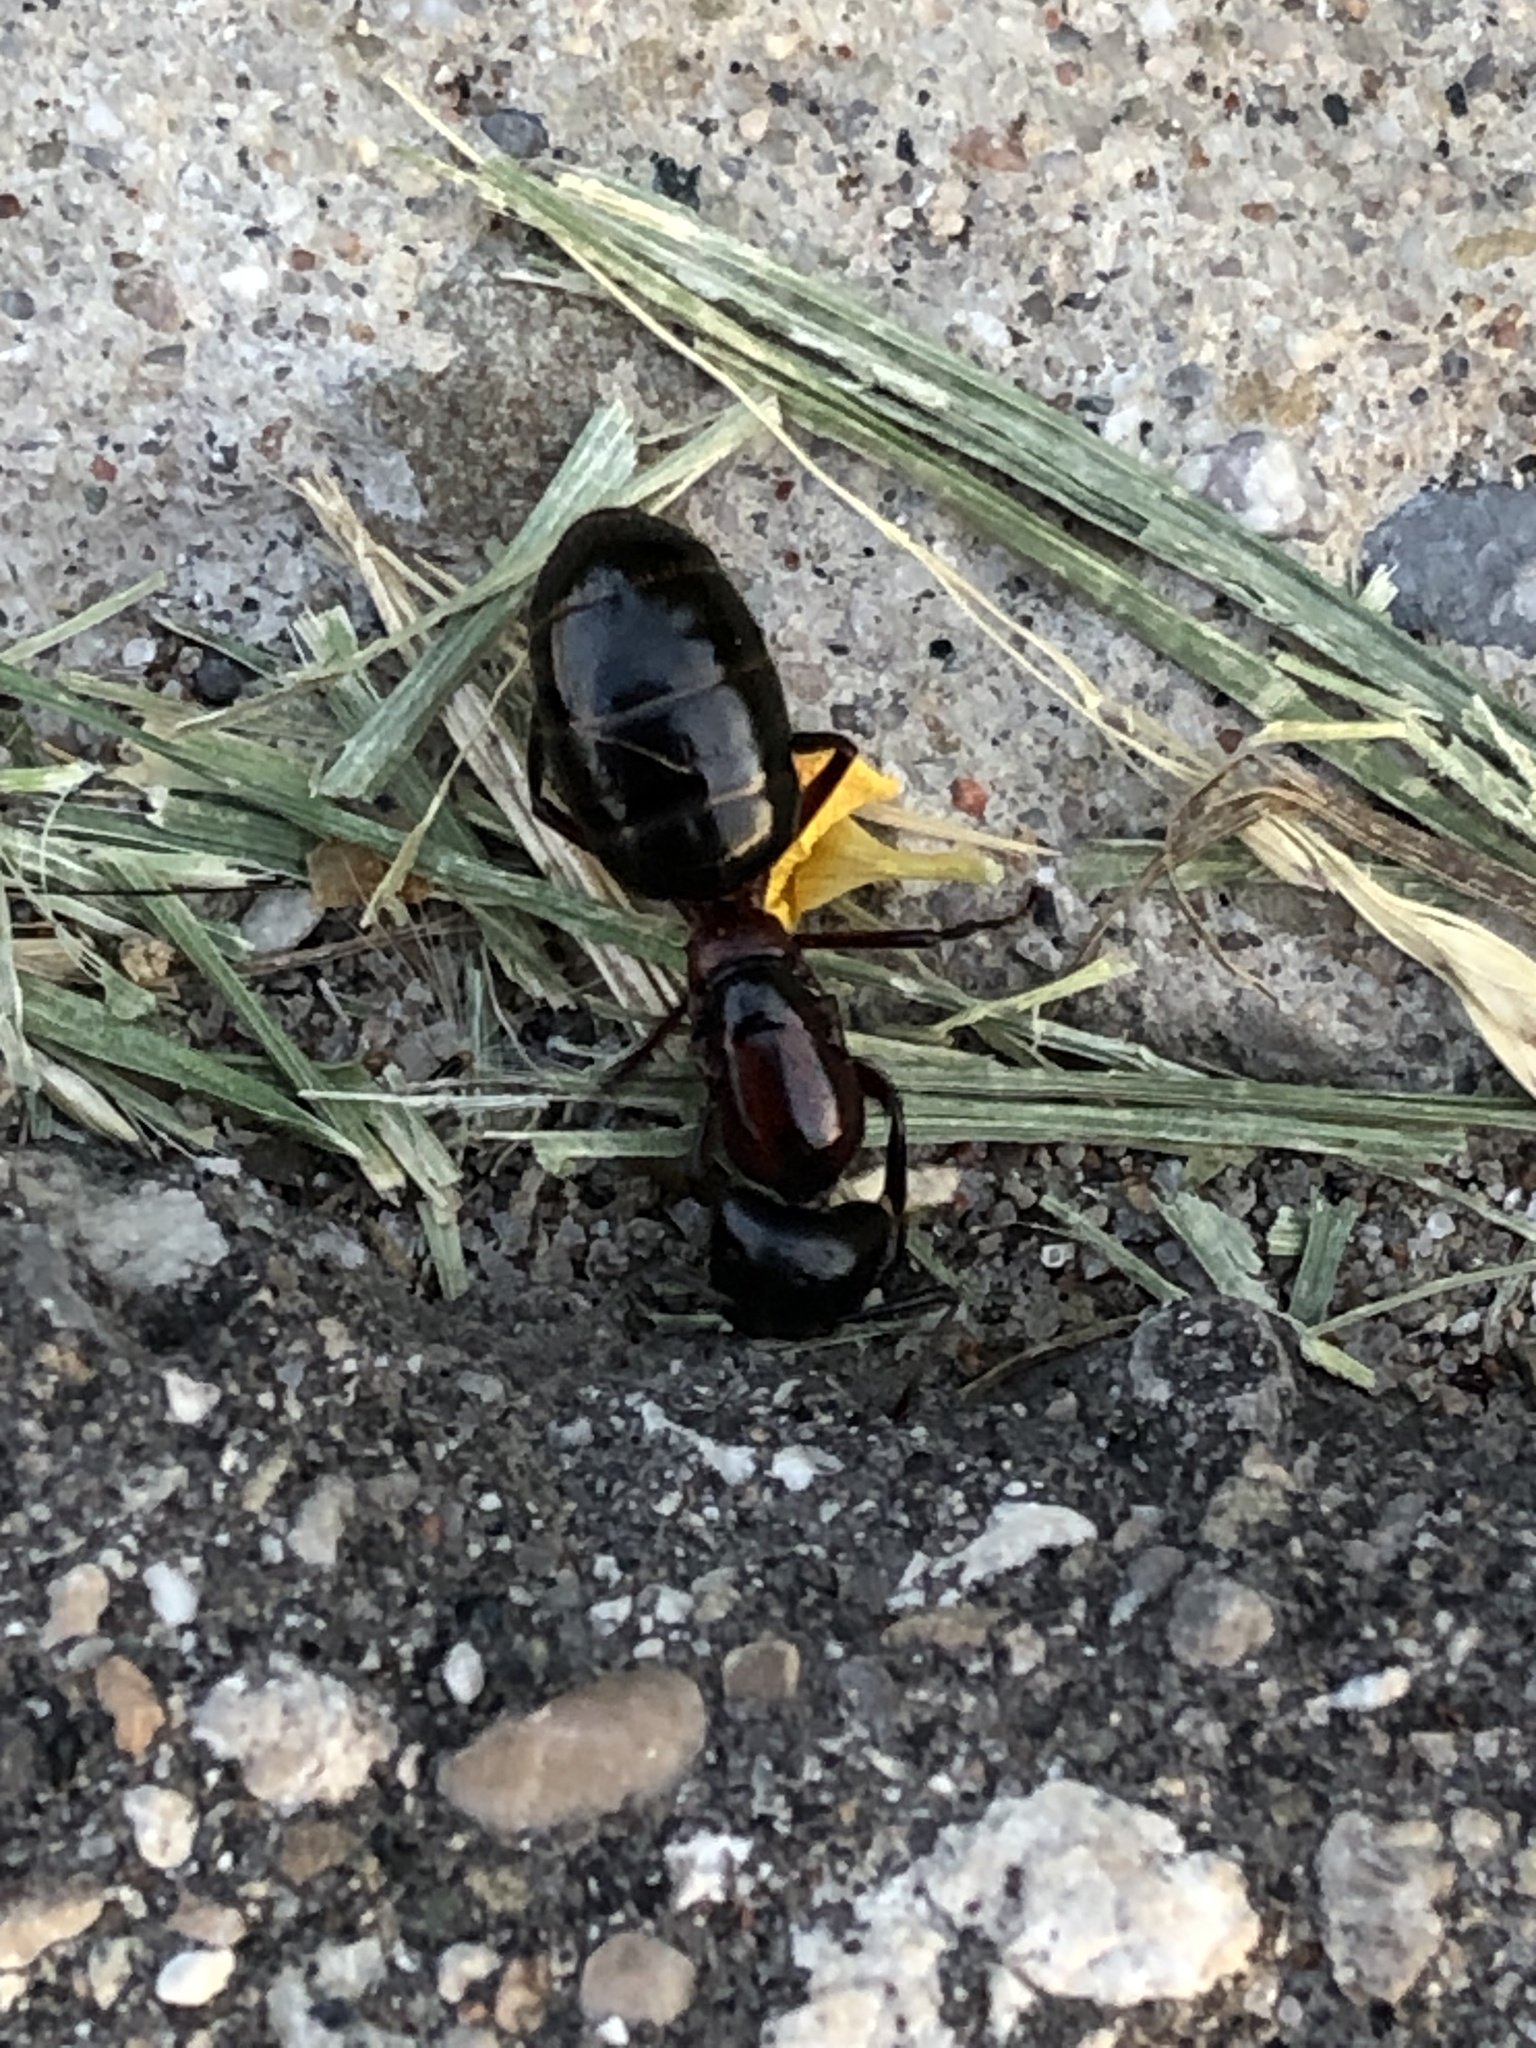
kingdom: Animalia
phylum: Arthropoda
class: Insecta
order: Hymenoptera
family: Formicidae
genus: Camponotus
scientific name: Camponotus novaeboracensis
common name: New york carpenter ant
